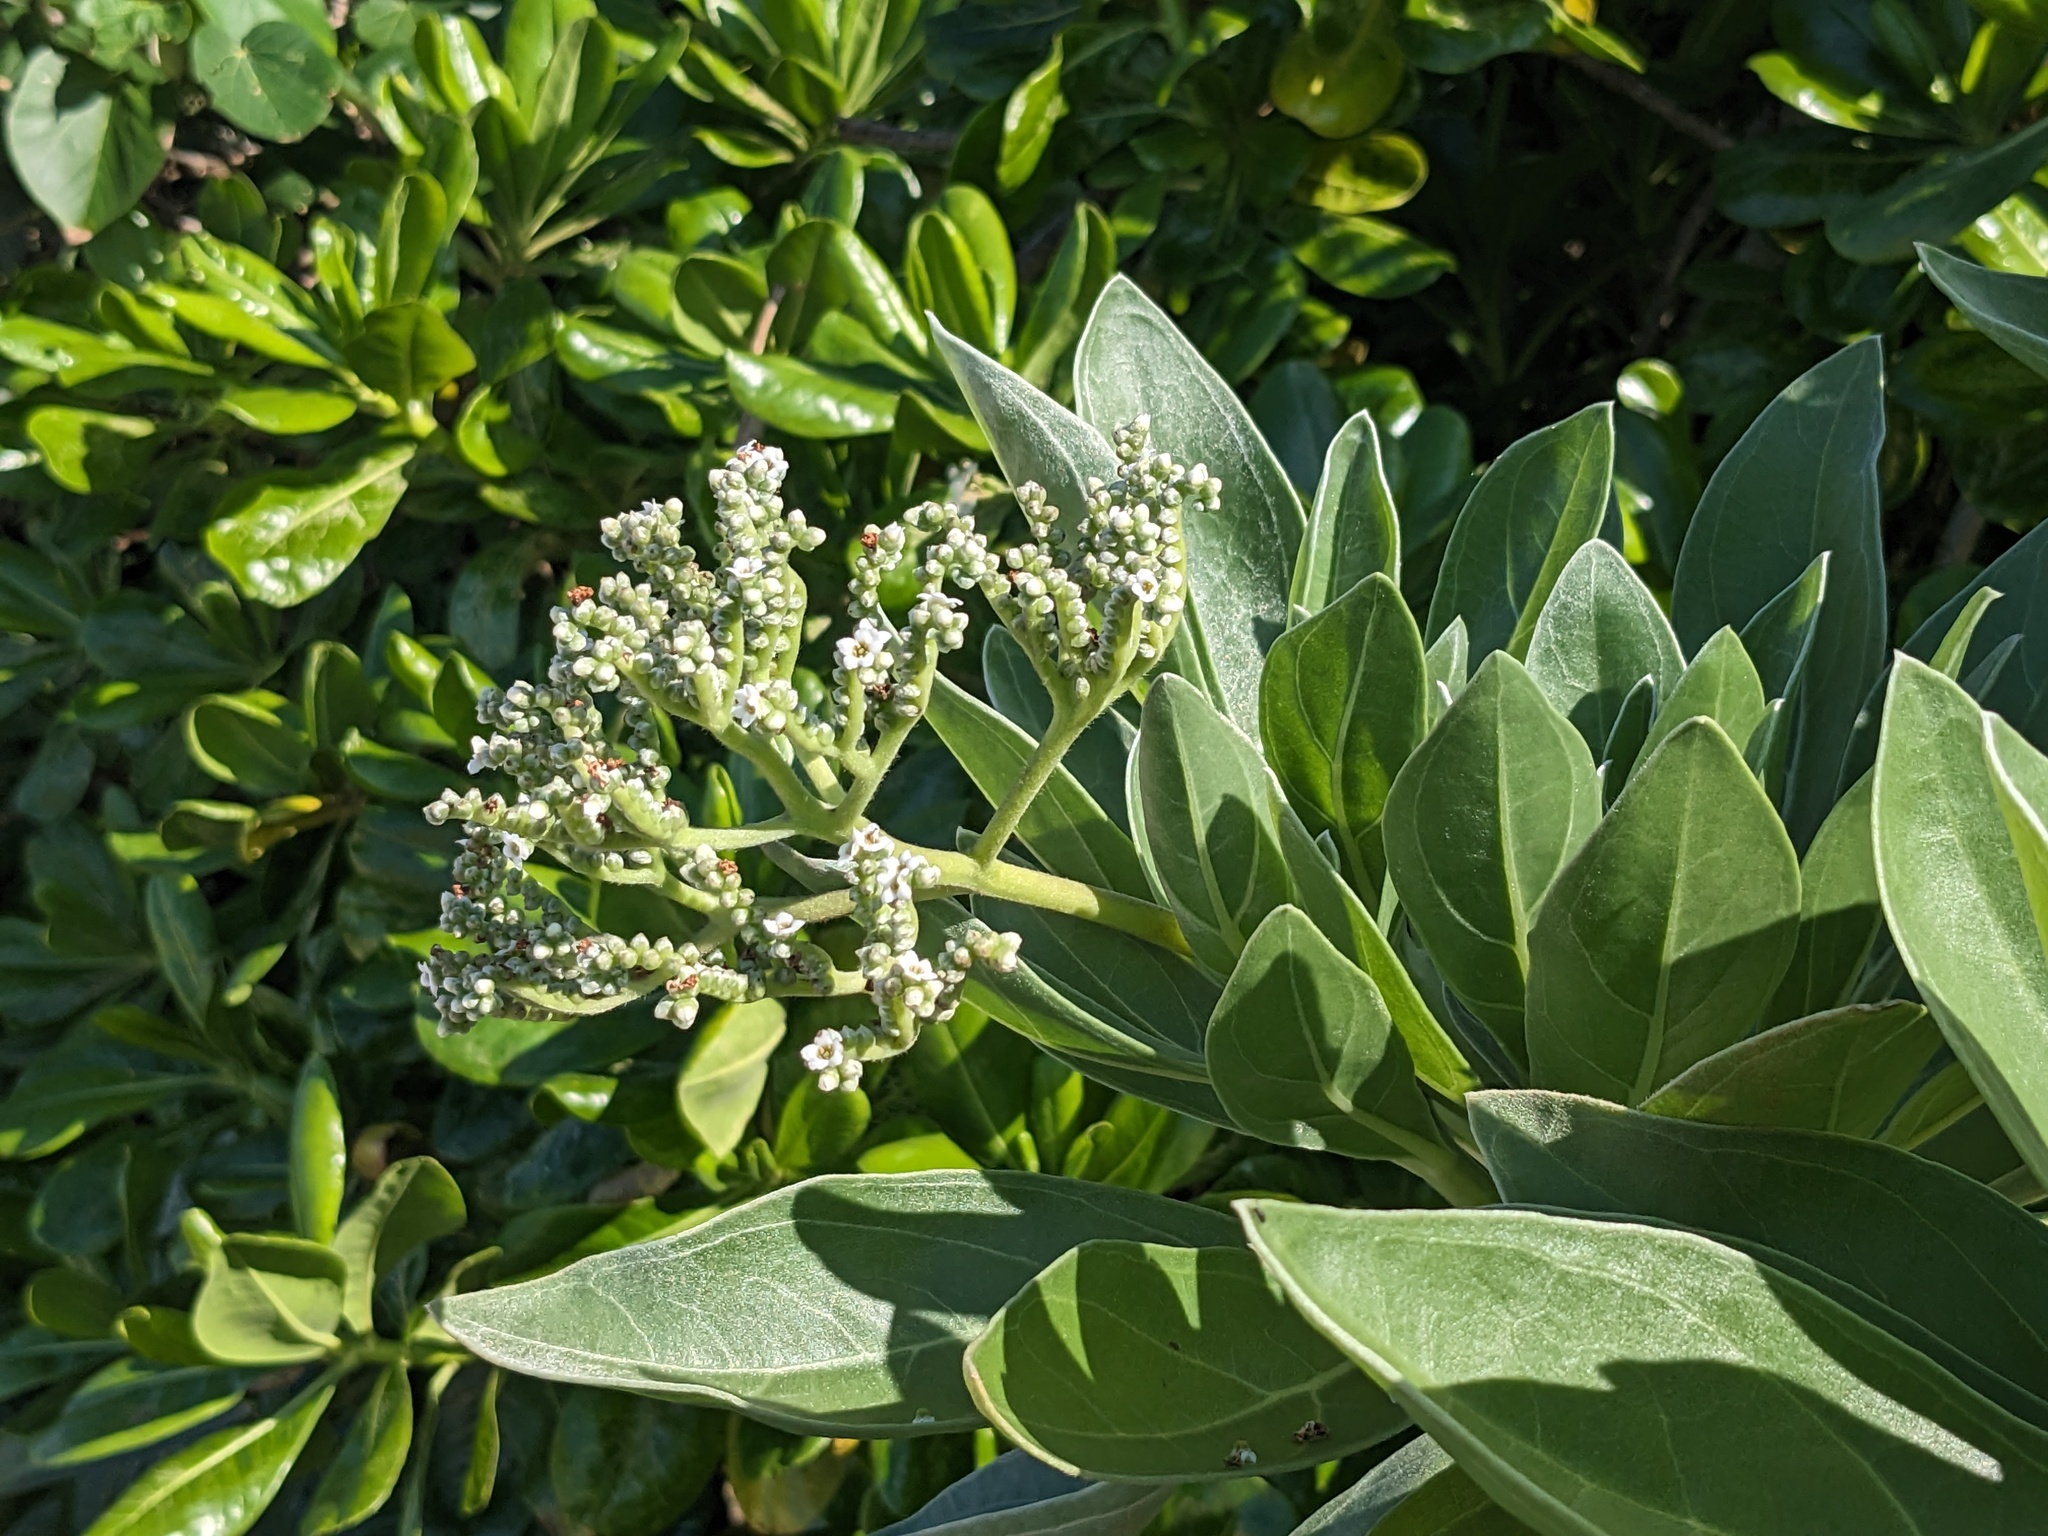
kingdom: Plantae
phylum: Tracheophyta
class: Magnoliopsida
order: Boraginales
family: Heliotropiaceae
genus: Heliotropium
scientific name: Heliotropium velutinum
